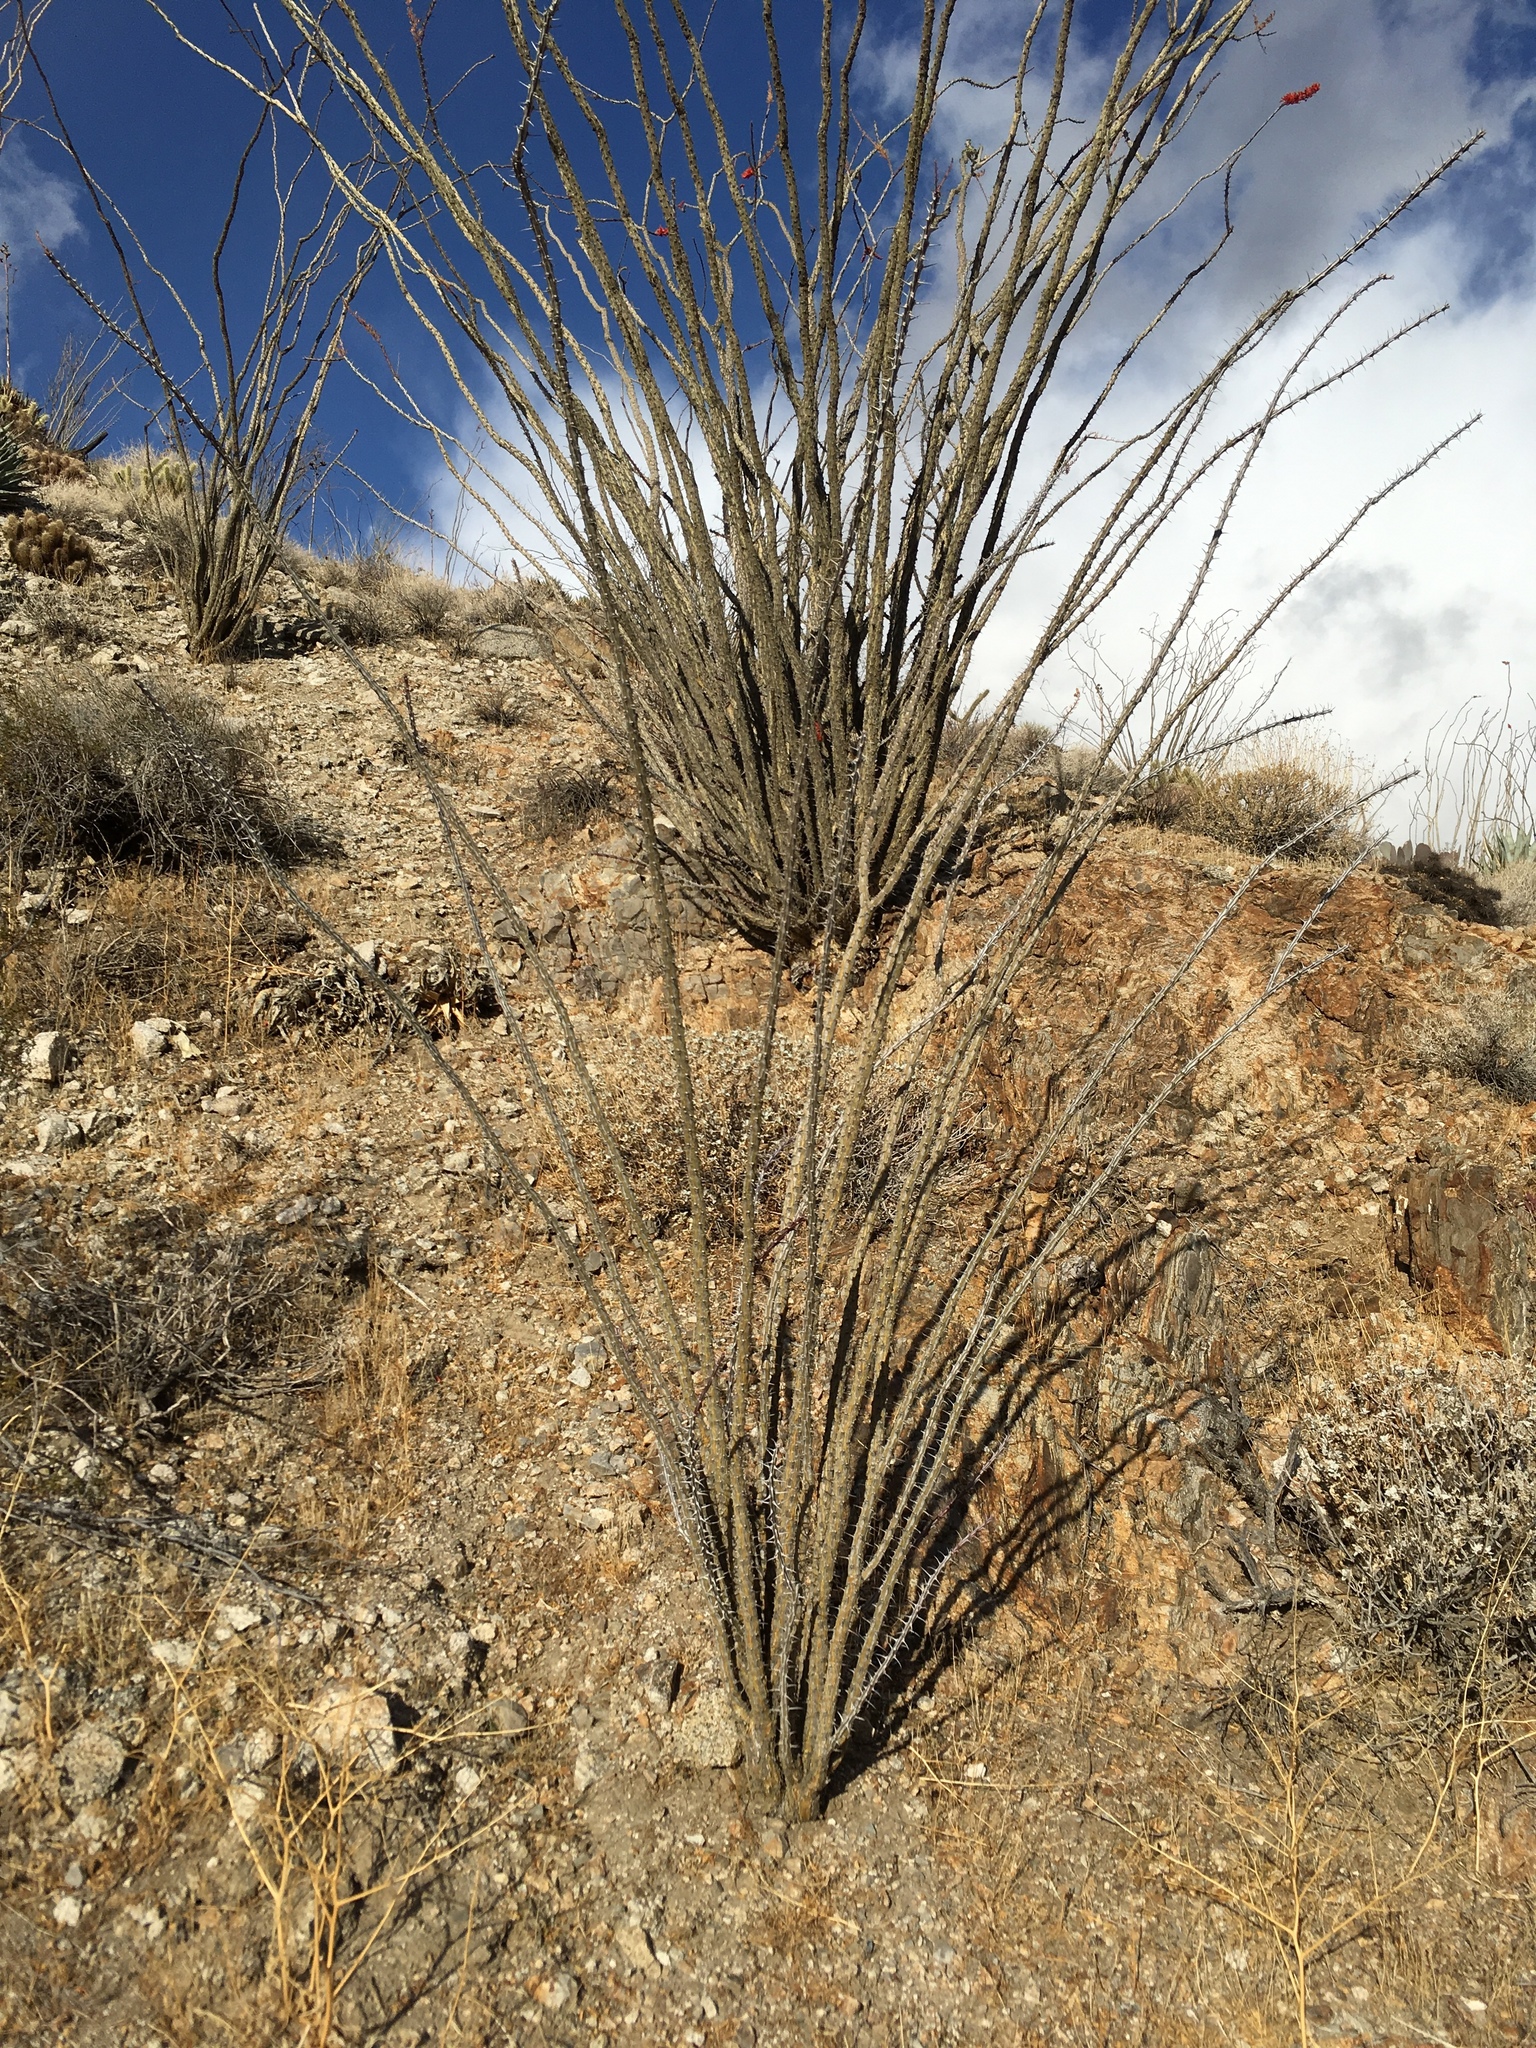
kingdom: Plantae
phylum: Tracheophyta
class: Magnoliopsida
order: Ericales
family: Fouquieriaceae
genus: Fouquieria
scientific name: Fouquieria splendens
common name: Vine-cactus
